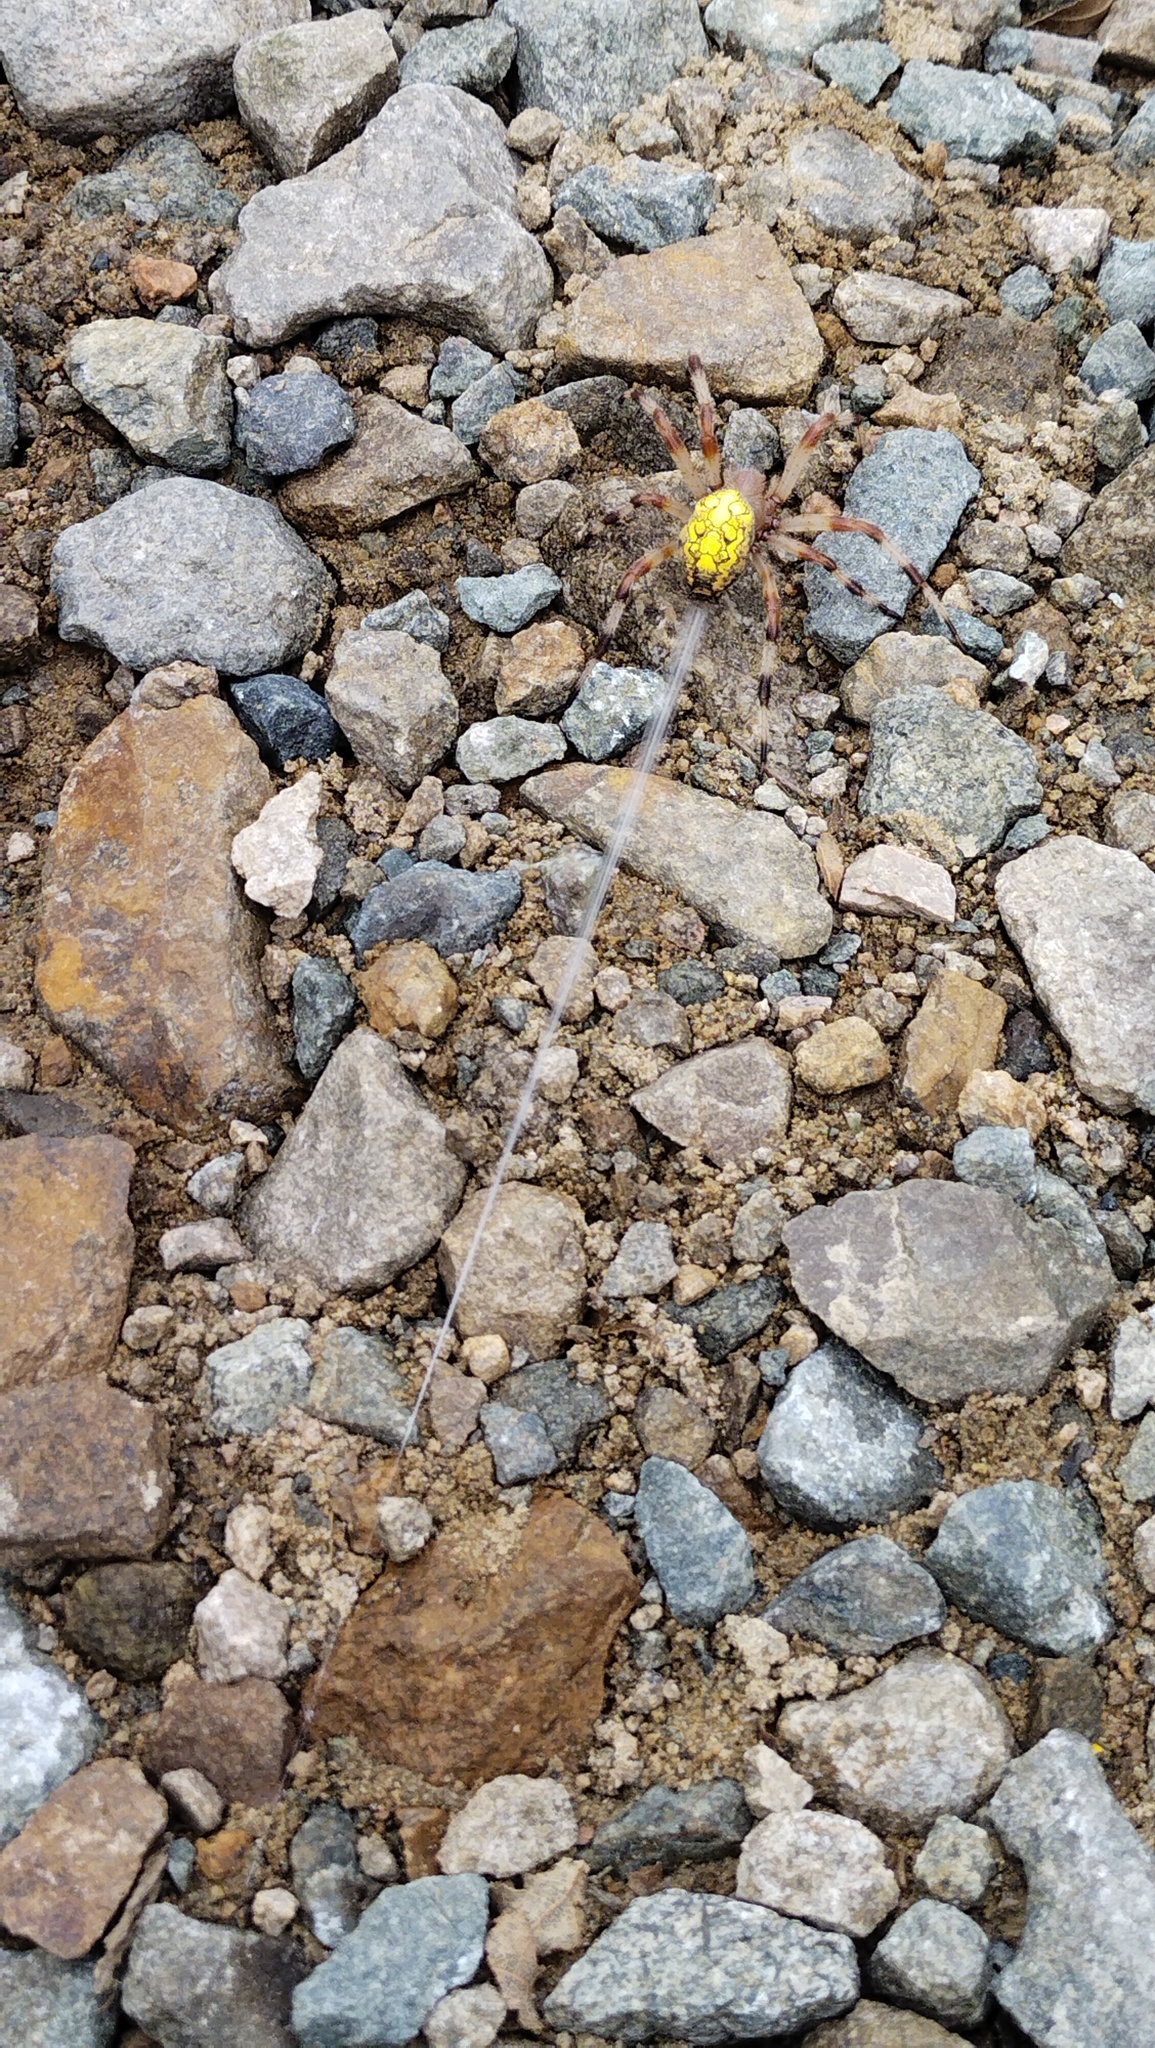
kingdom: Animalia
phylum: Arthropoda
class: Arachnida
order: Araneae
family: Araneidae
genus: Araneus
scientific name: Araneus marmoreus
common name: Marbled orbweaver
